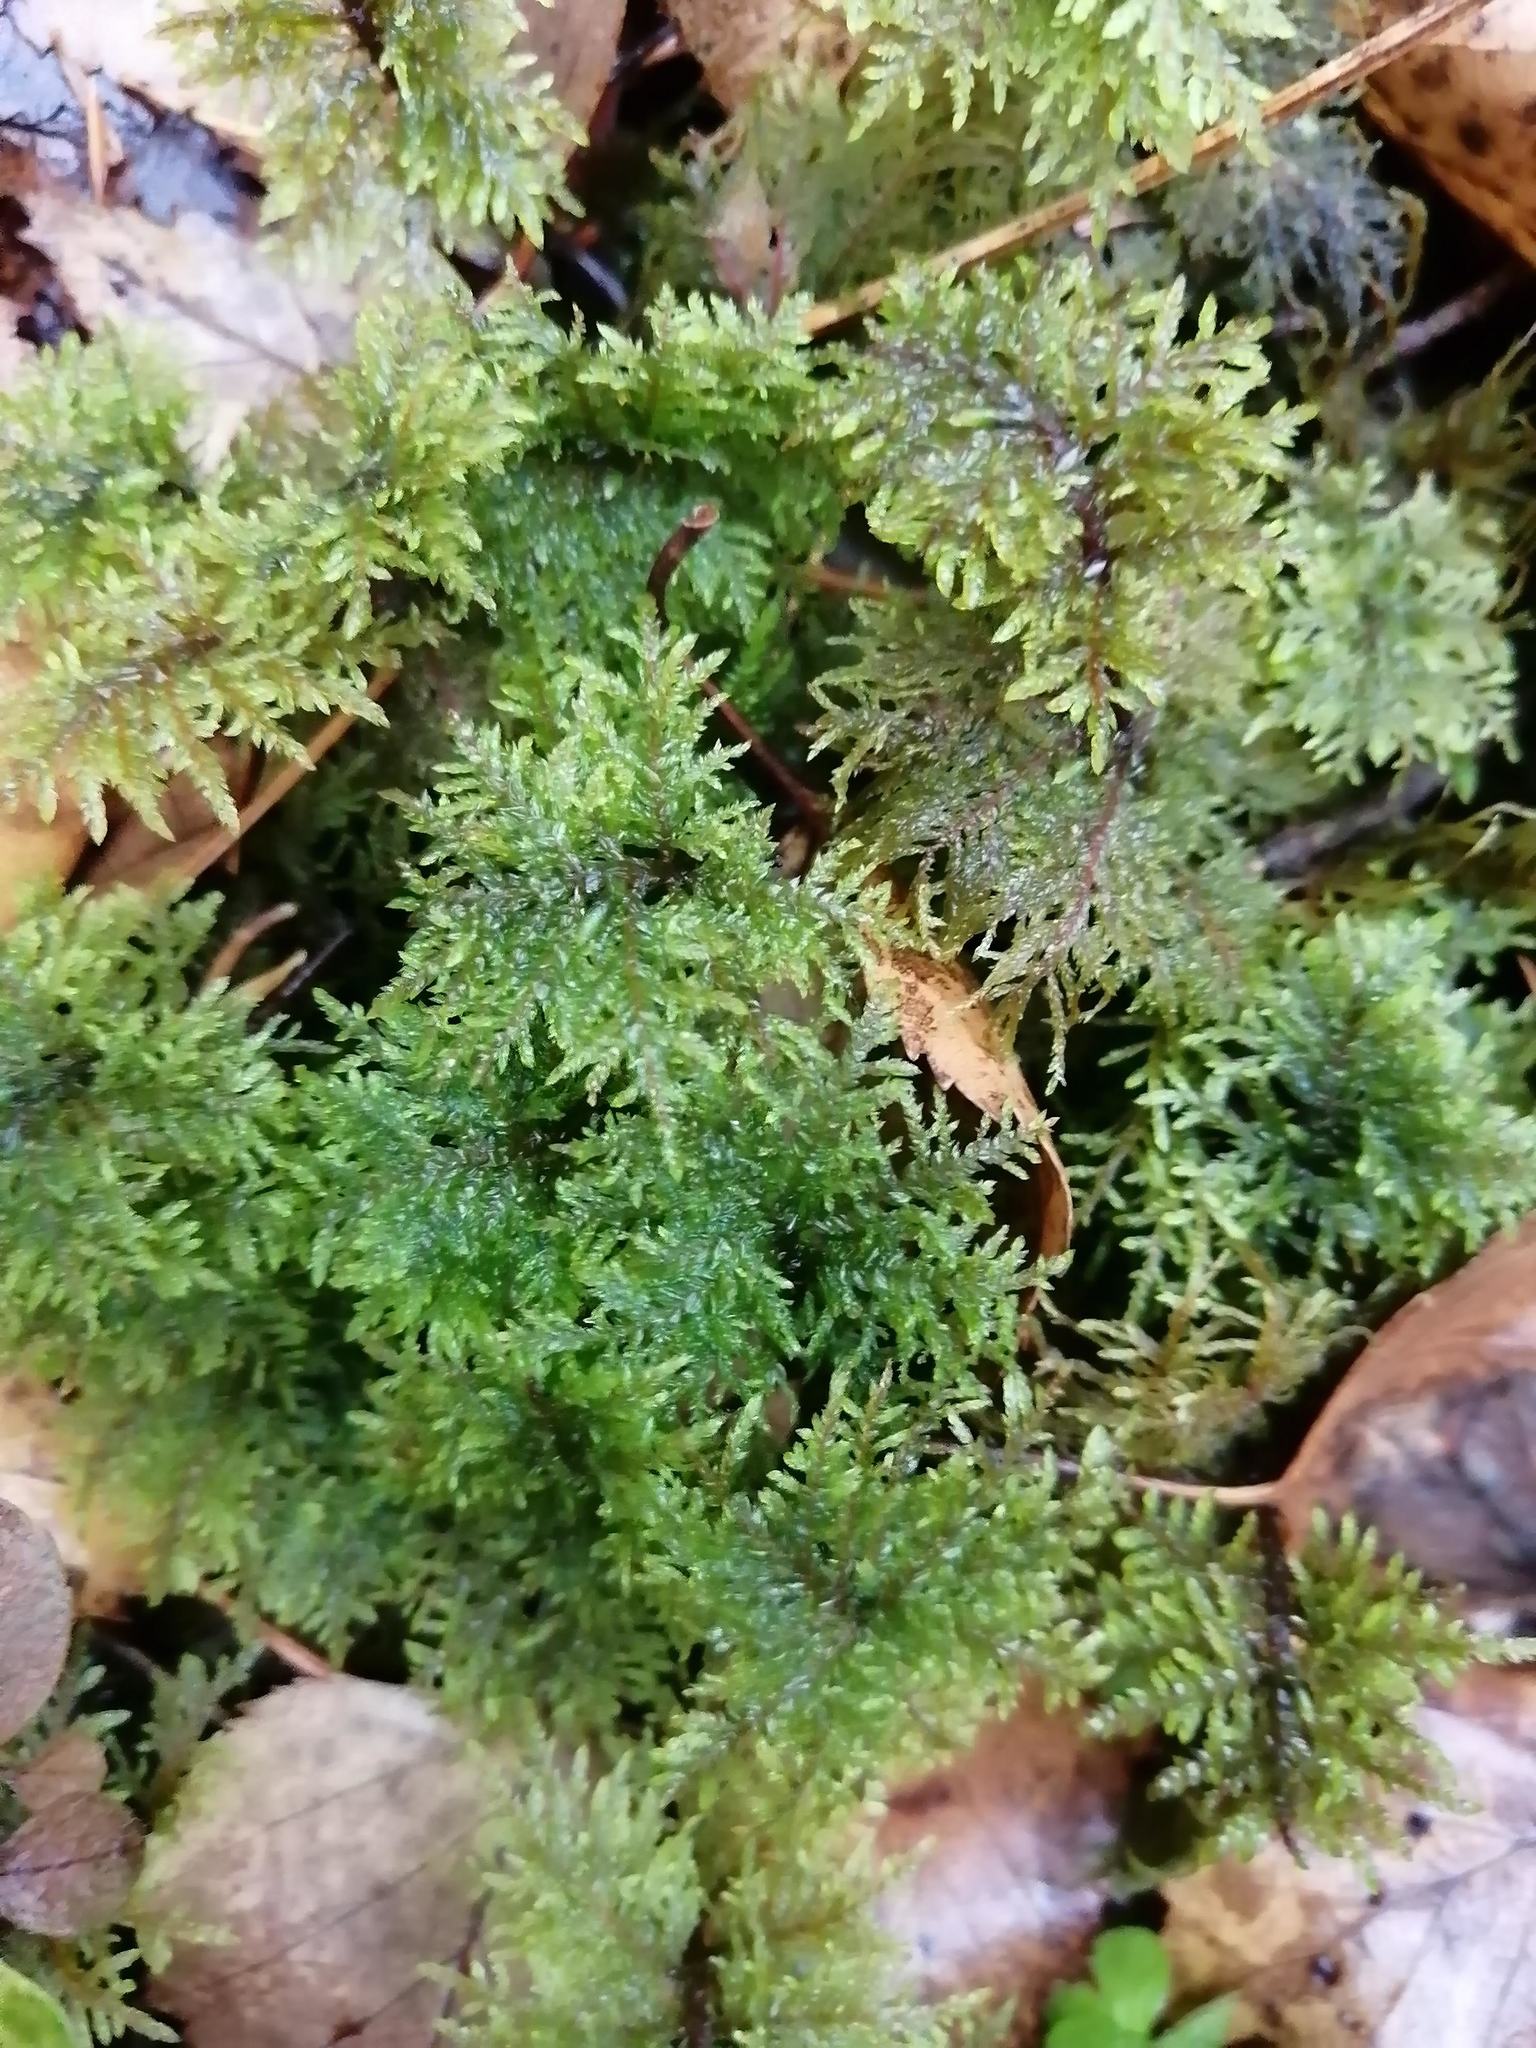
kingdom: Plantae
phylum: Bryophyta
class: Bryopsida
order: Hypnales
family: Hylocomiaceae
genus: Hylocomium
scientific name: Hylocomium splendens
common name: Stairstep moss
